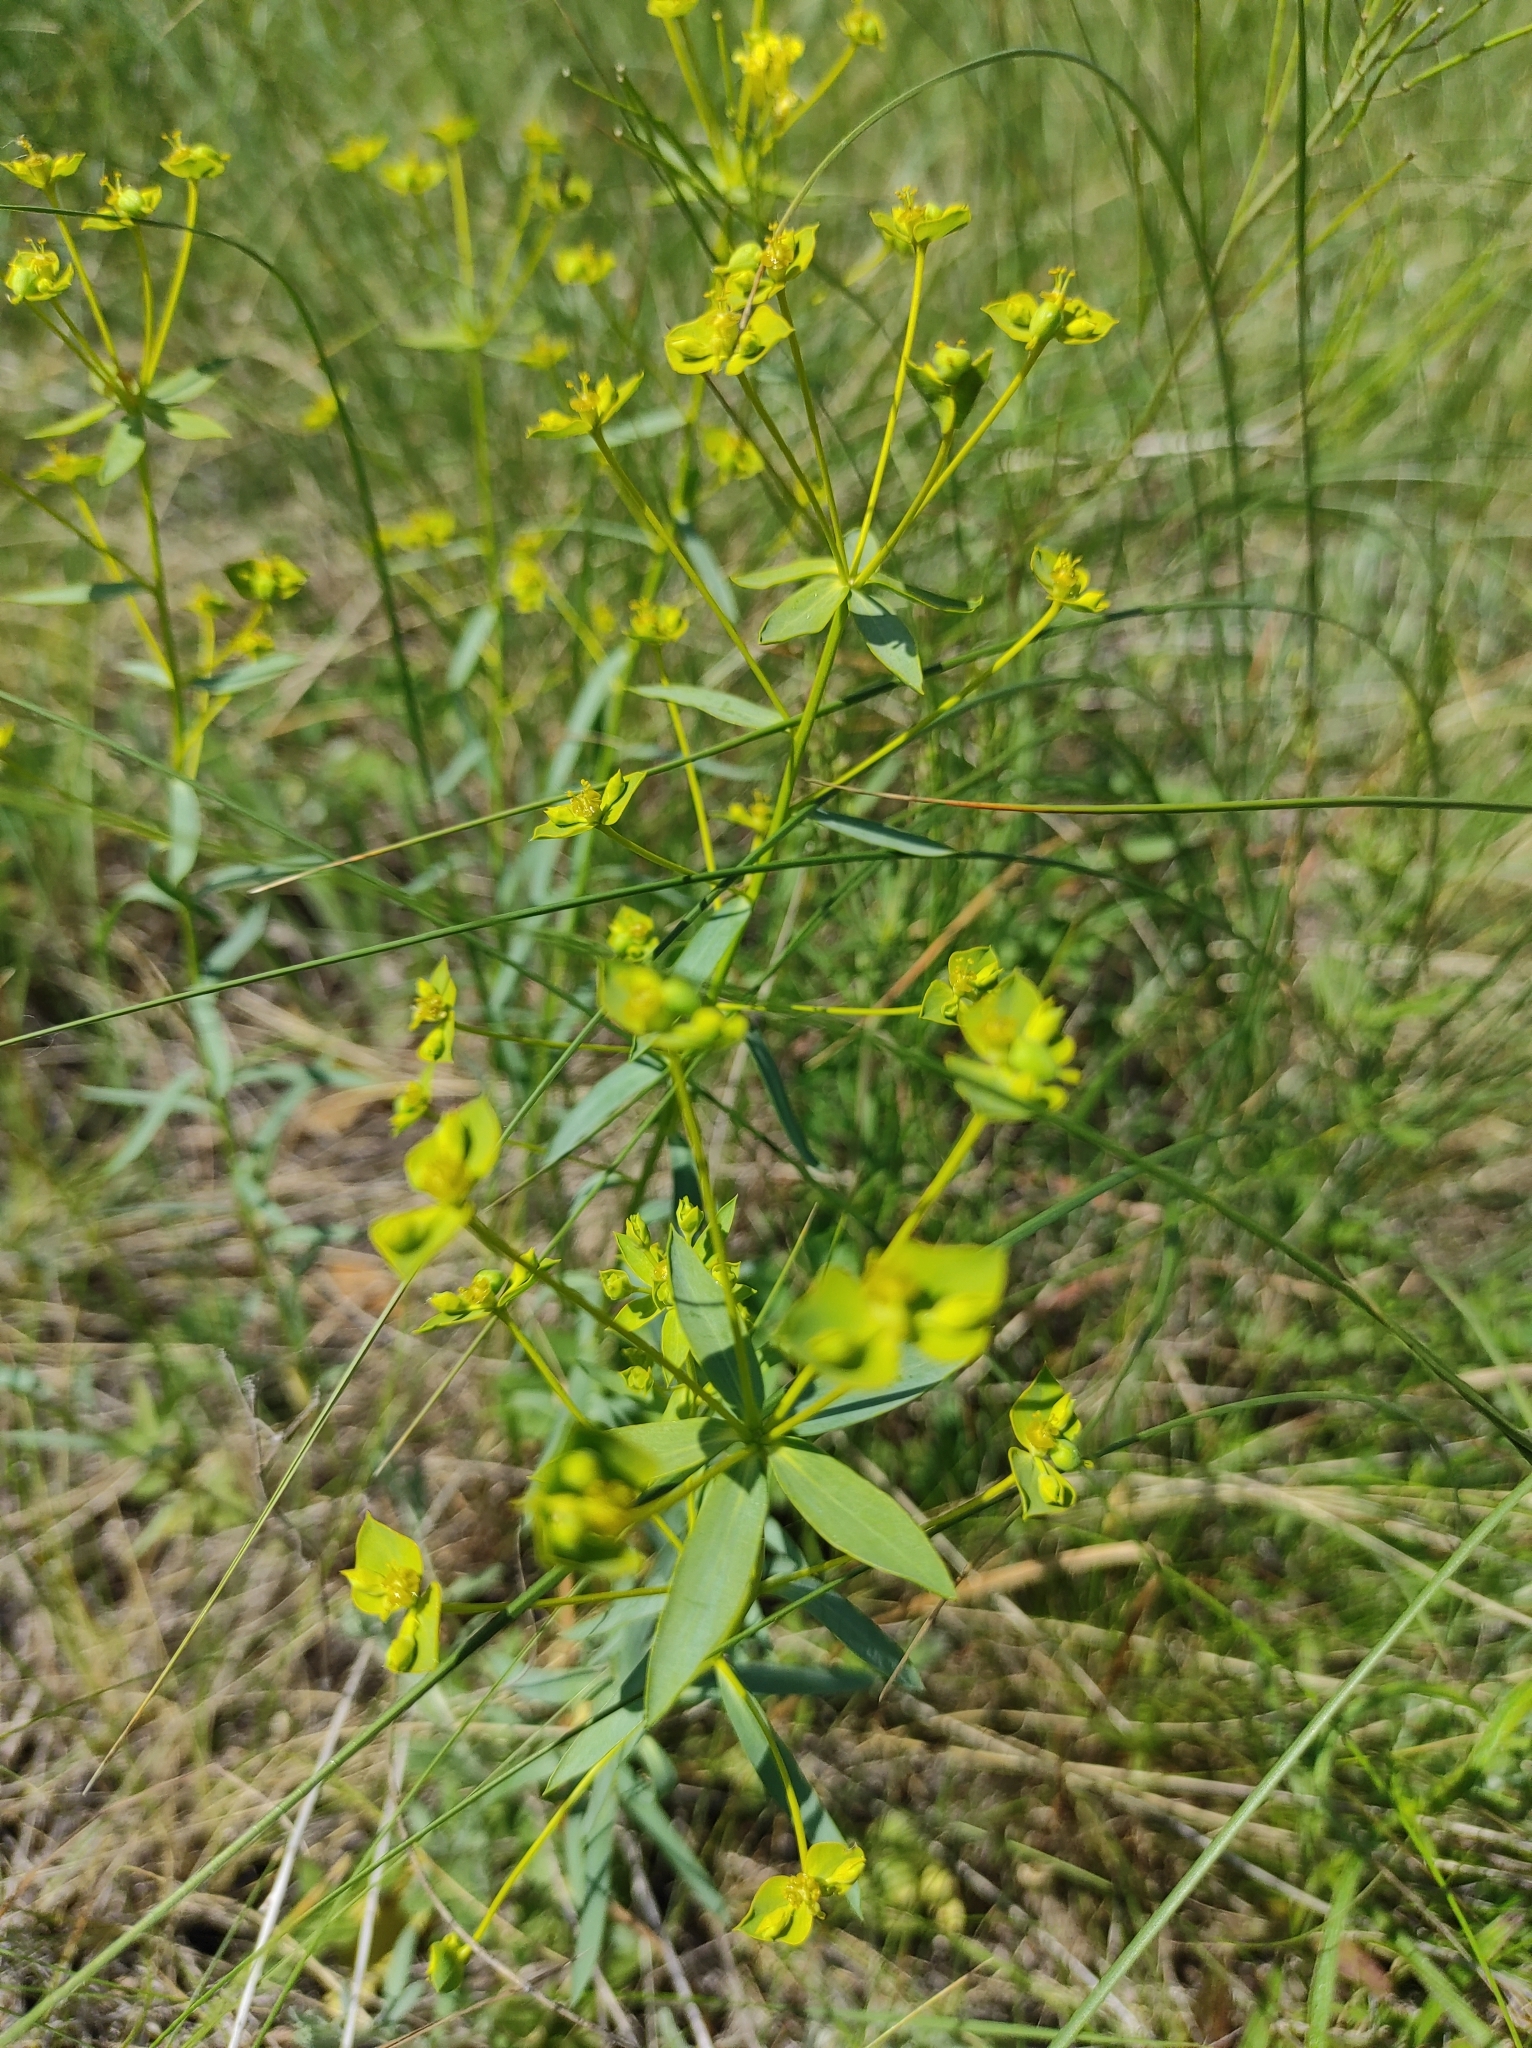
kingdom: Plantae
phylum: Tracheophyta
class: Magnoliopsida
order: Malpighiales
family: Euphorbiaceae
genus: Euphorbia
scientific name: Euphorbia seguieriana
